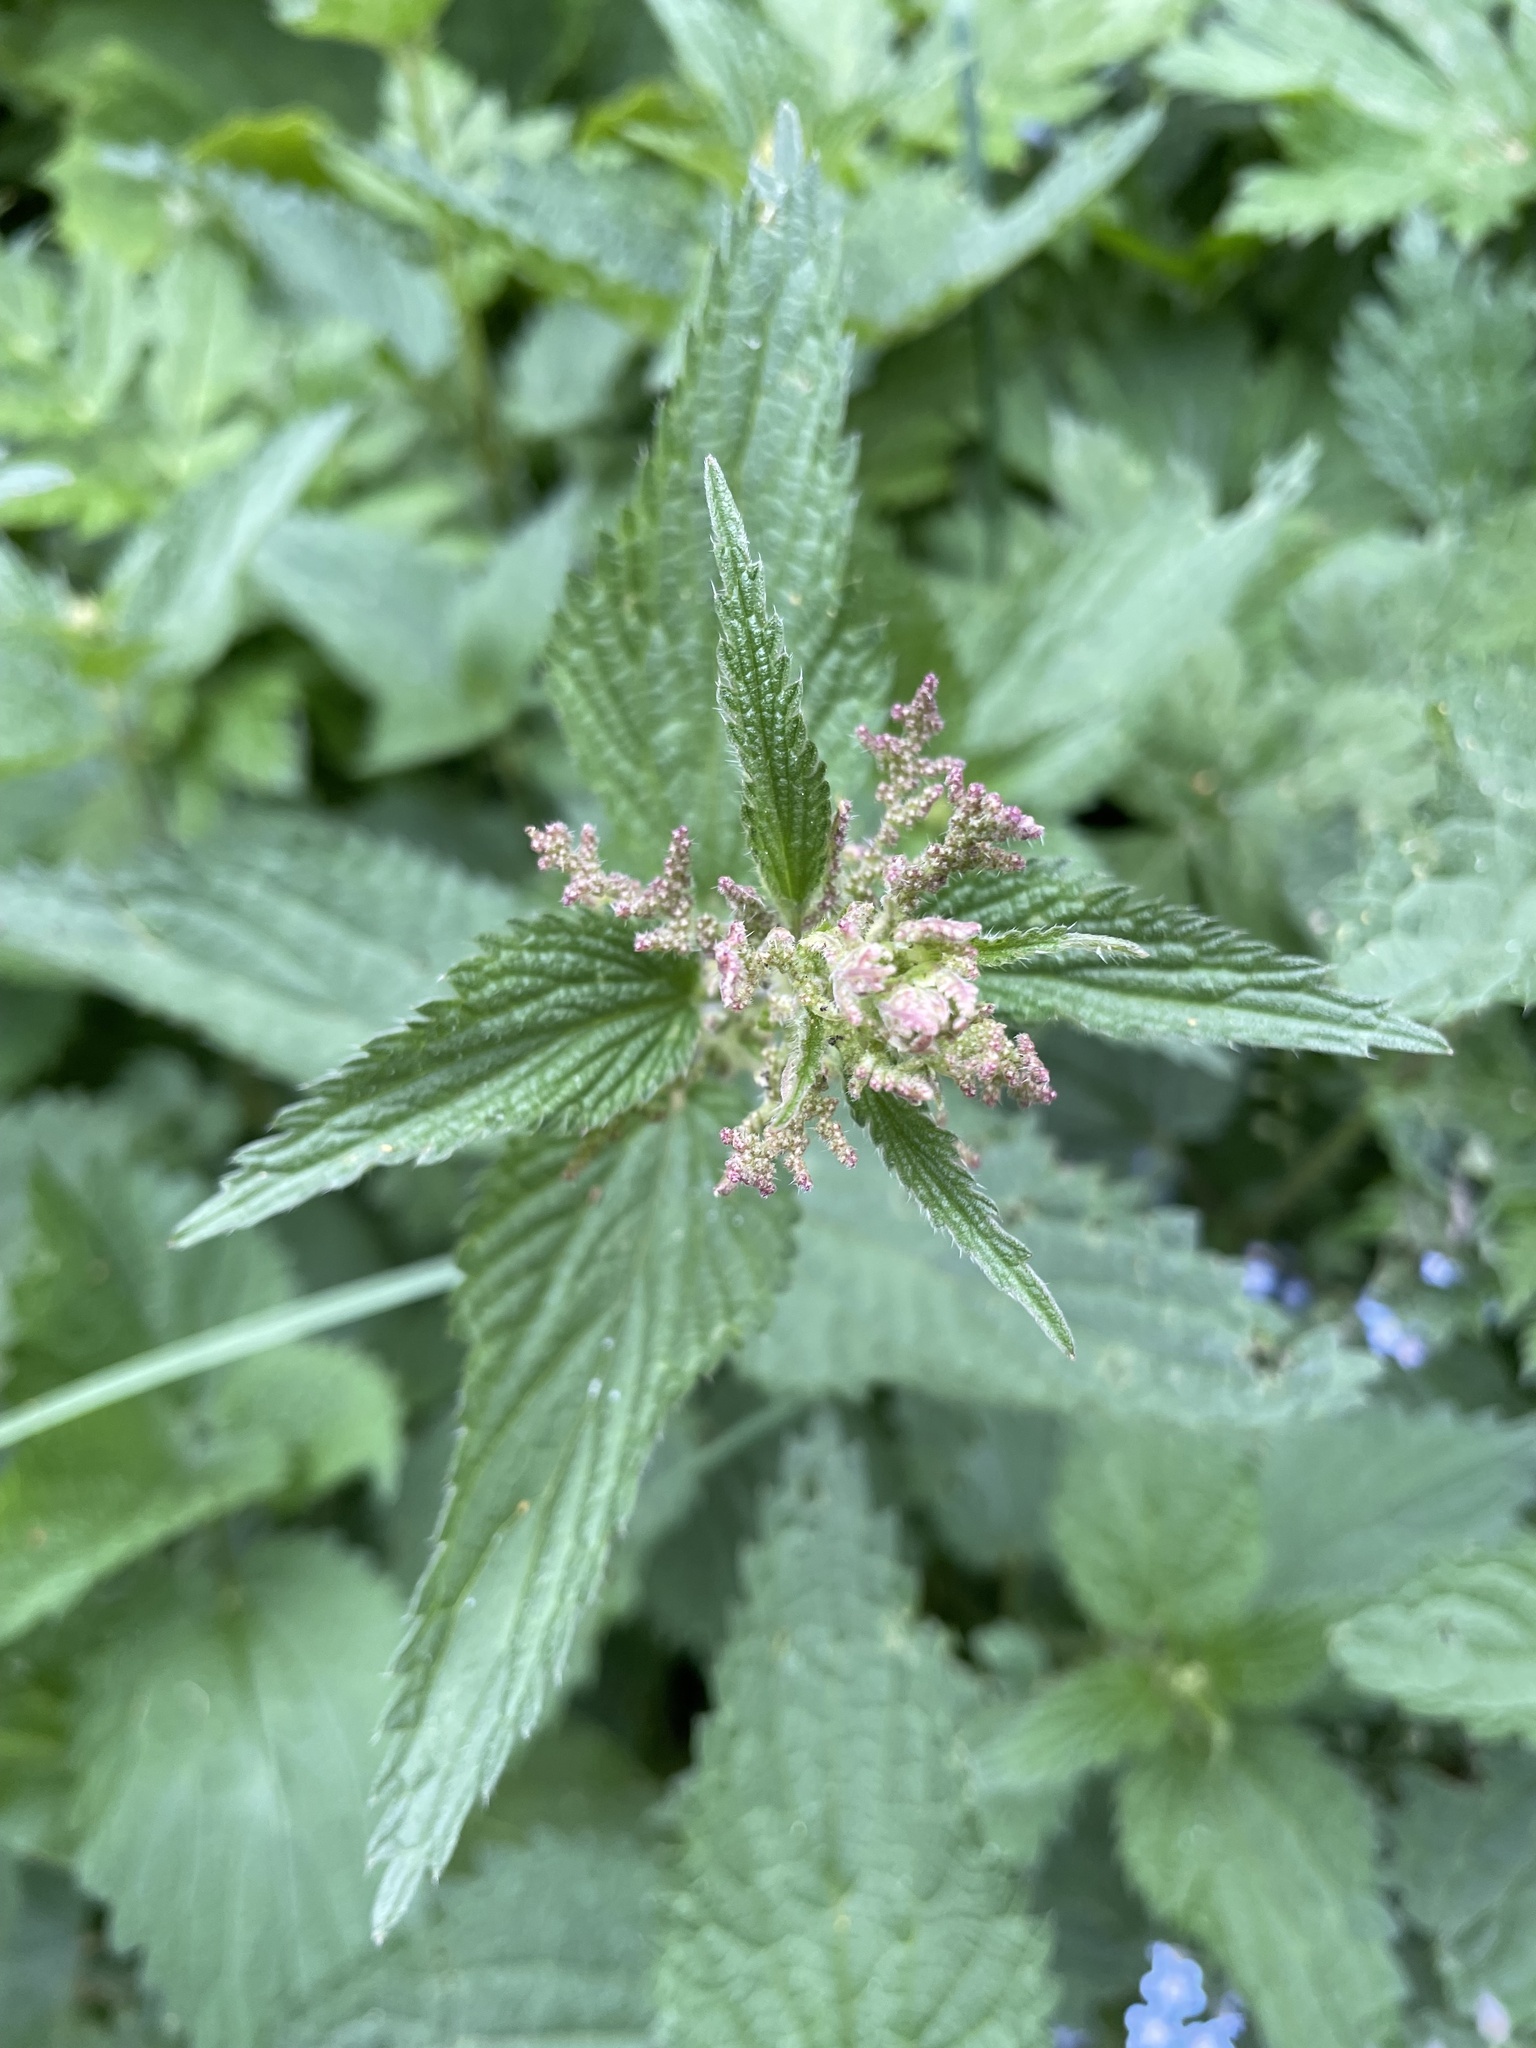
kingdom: Plantae
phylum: Tracheophyta
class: Magnoliopsida
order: Rosales
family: Urticaceae
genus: Urtica
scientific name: Urtica dioica
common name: Common nettle
